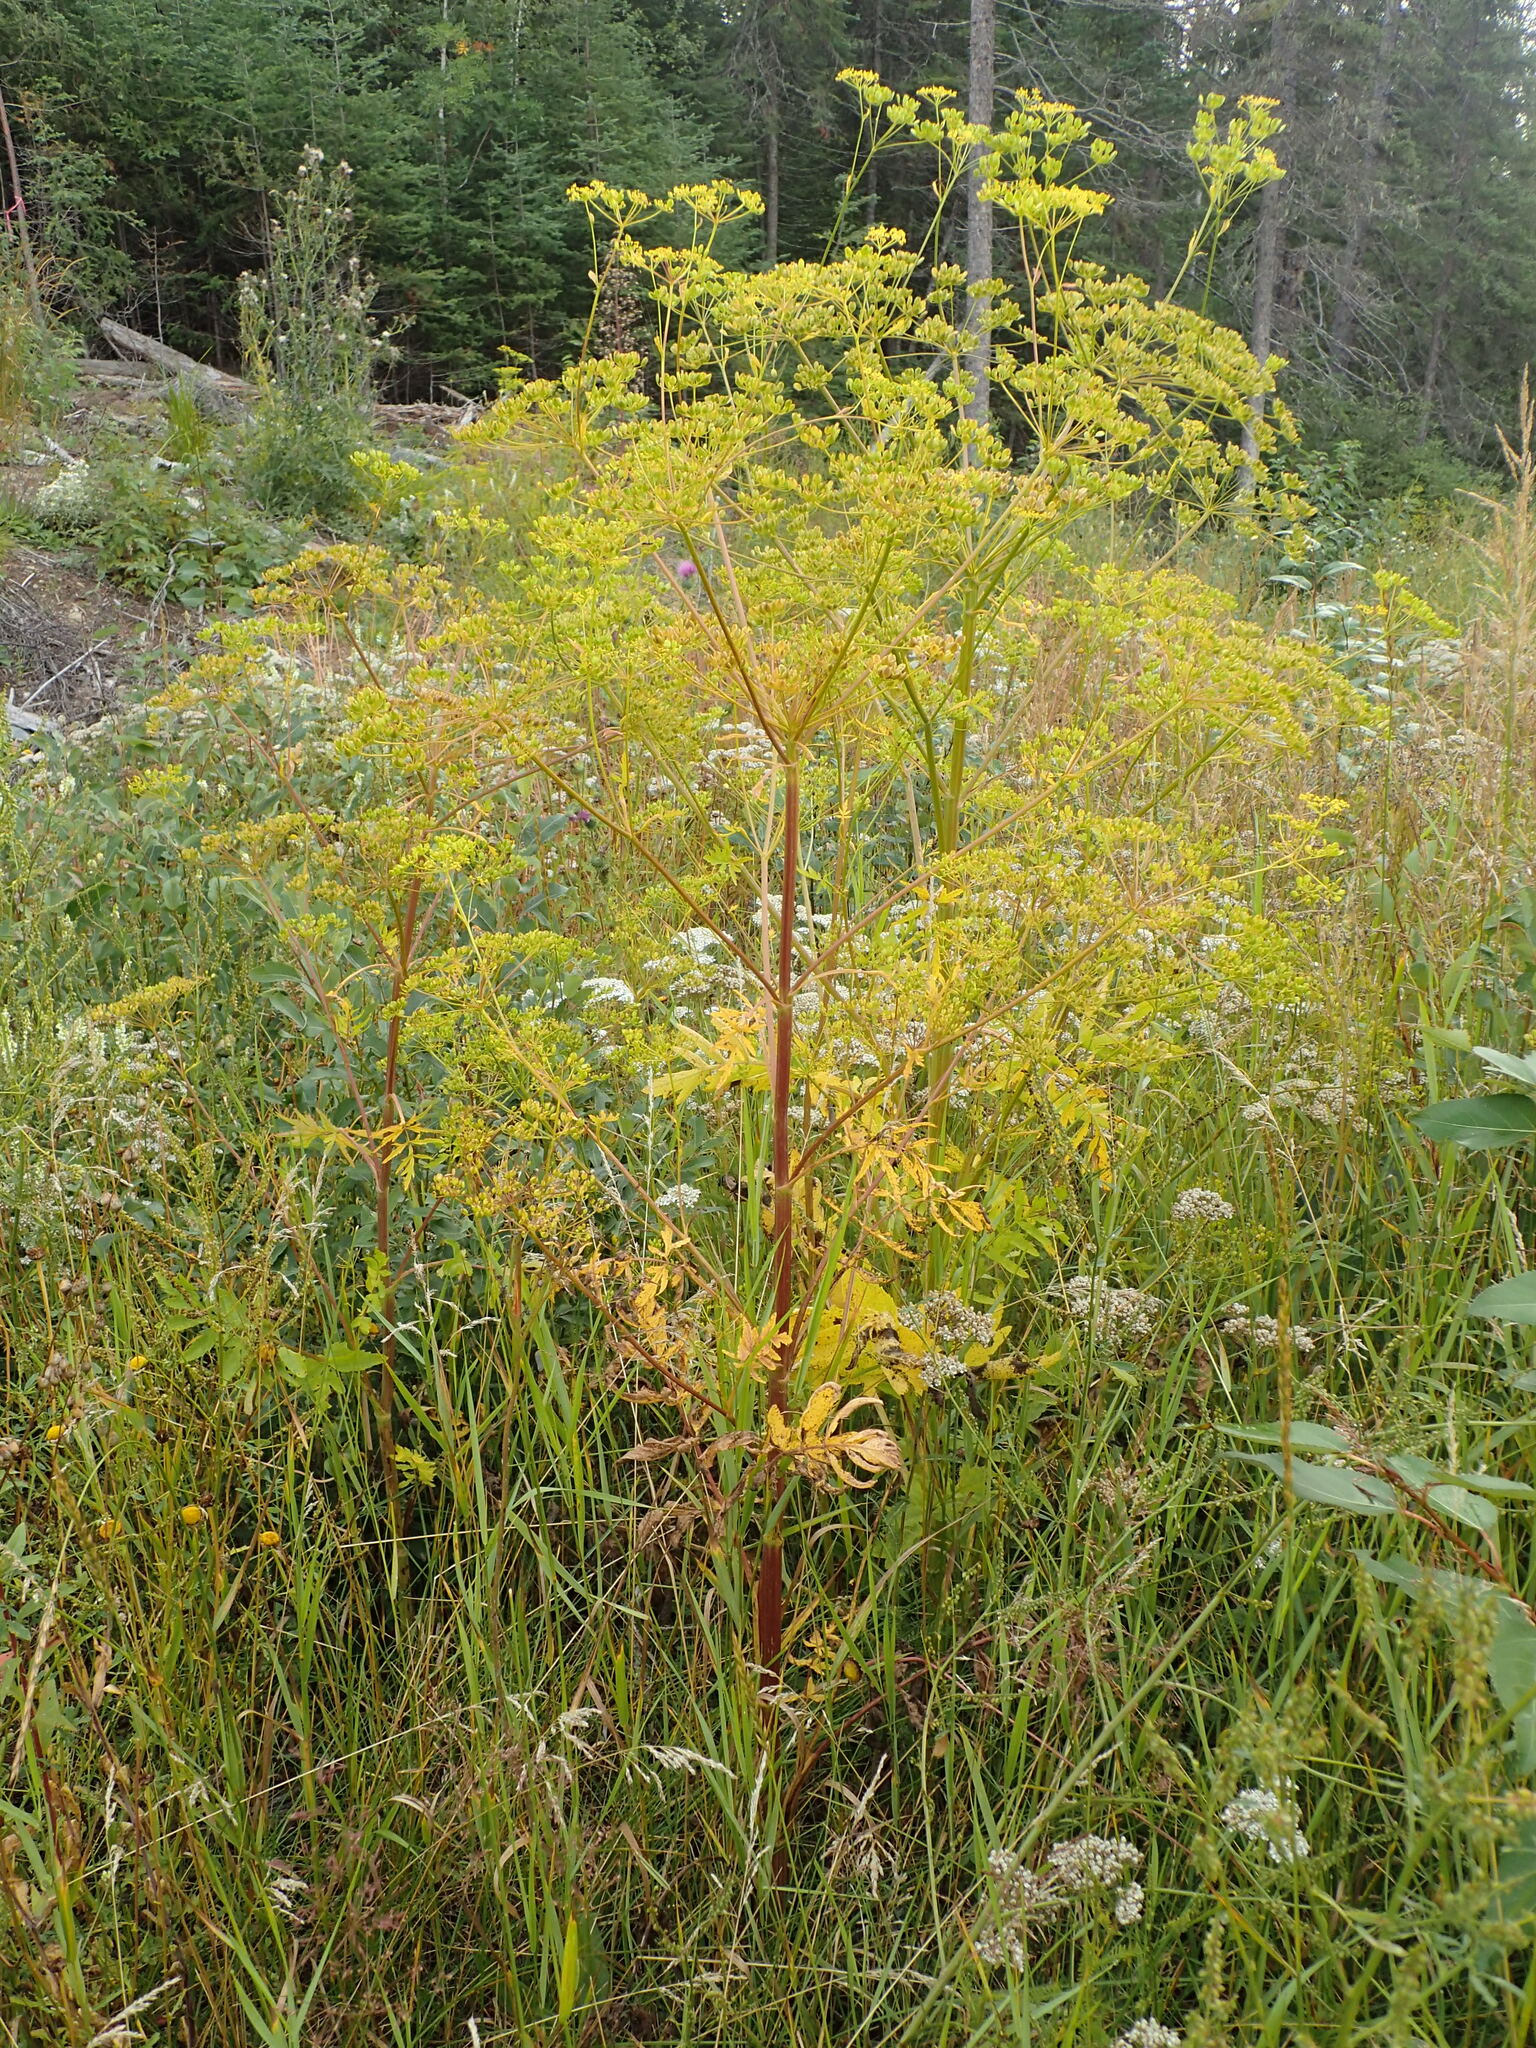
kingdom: Plantae
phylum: Tracheophyta
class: Magnoliopsida
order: Apiales
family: Apiaceae
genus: Pastinaca
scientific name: Pastinaca sativa
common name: Wild parsnip
